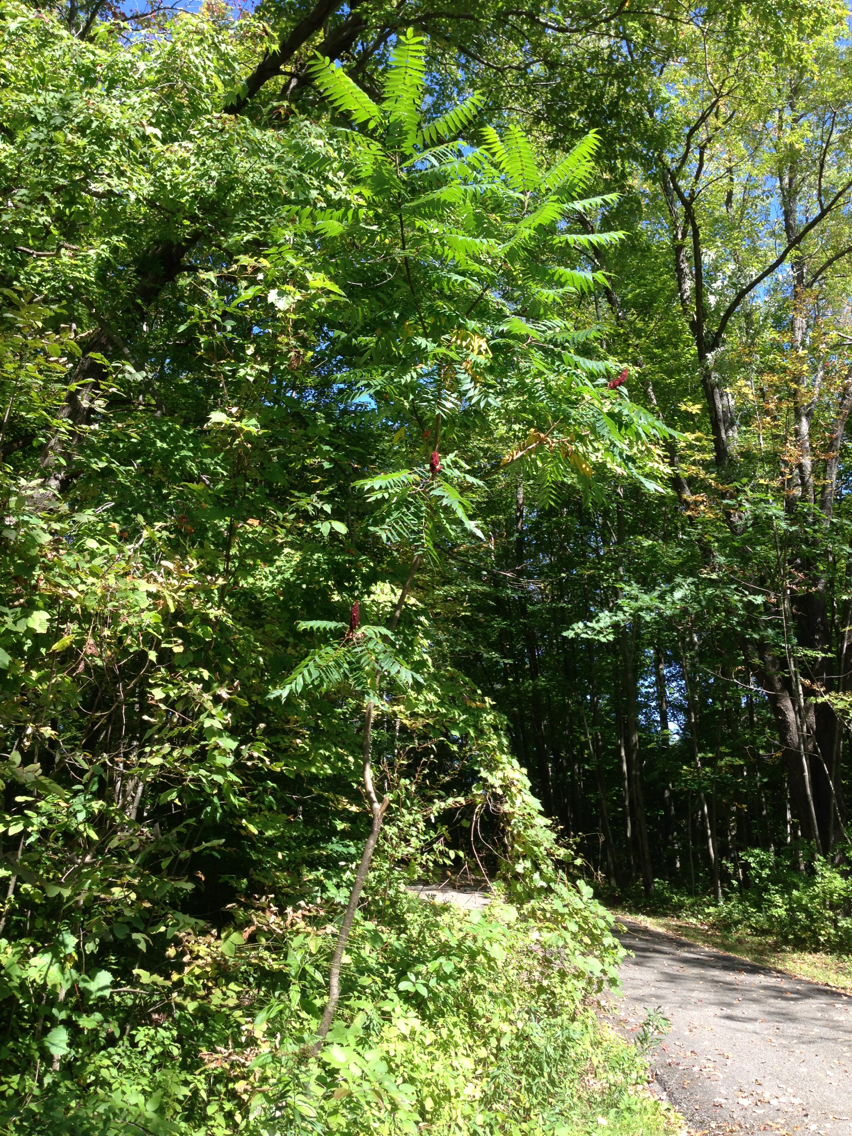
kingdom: Plantae
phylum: Tracheophyta
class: Magnoliopsida
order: Sapindales
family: Anacardiaceae
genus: Rhus
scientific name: Rhus typhina
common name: Staghorn sumac
